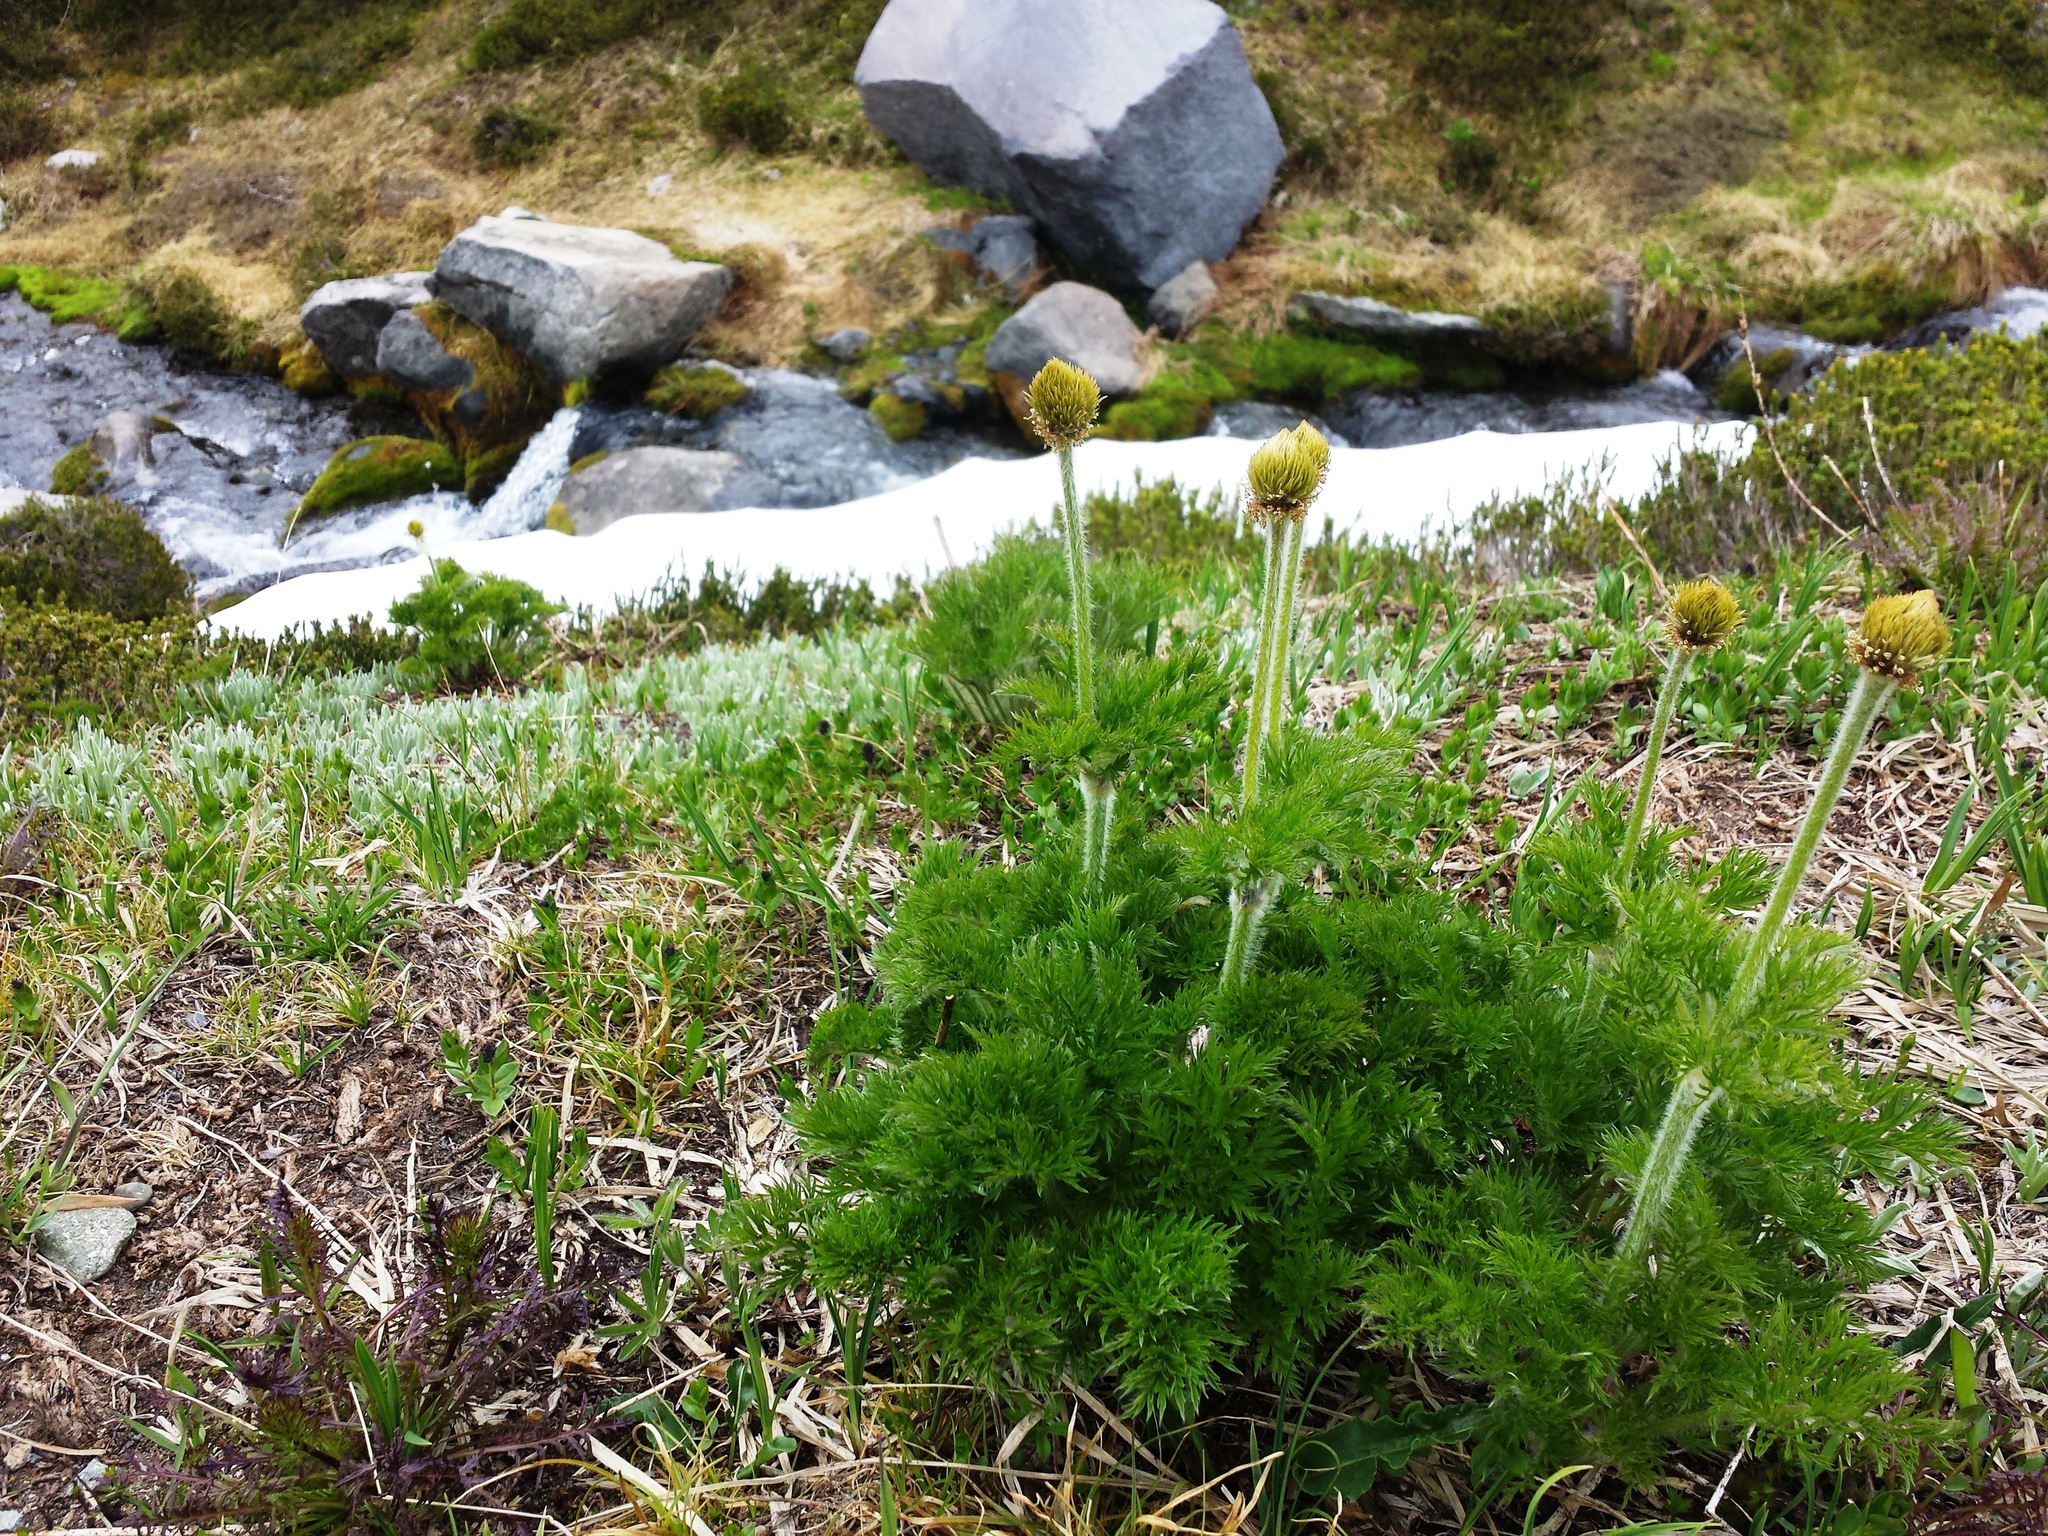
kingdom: Plantae
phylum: Tracheophyta
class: Magnoliopsida
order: Ranunculales
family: Ranunculaceae
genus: Pulsatilla
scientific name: Pulsatilla occidentalis
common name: Mountain pasqueflower
